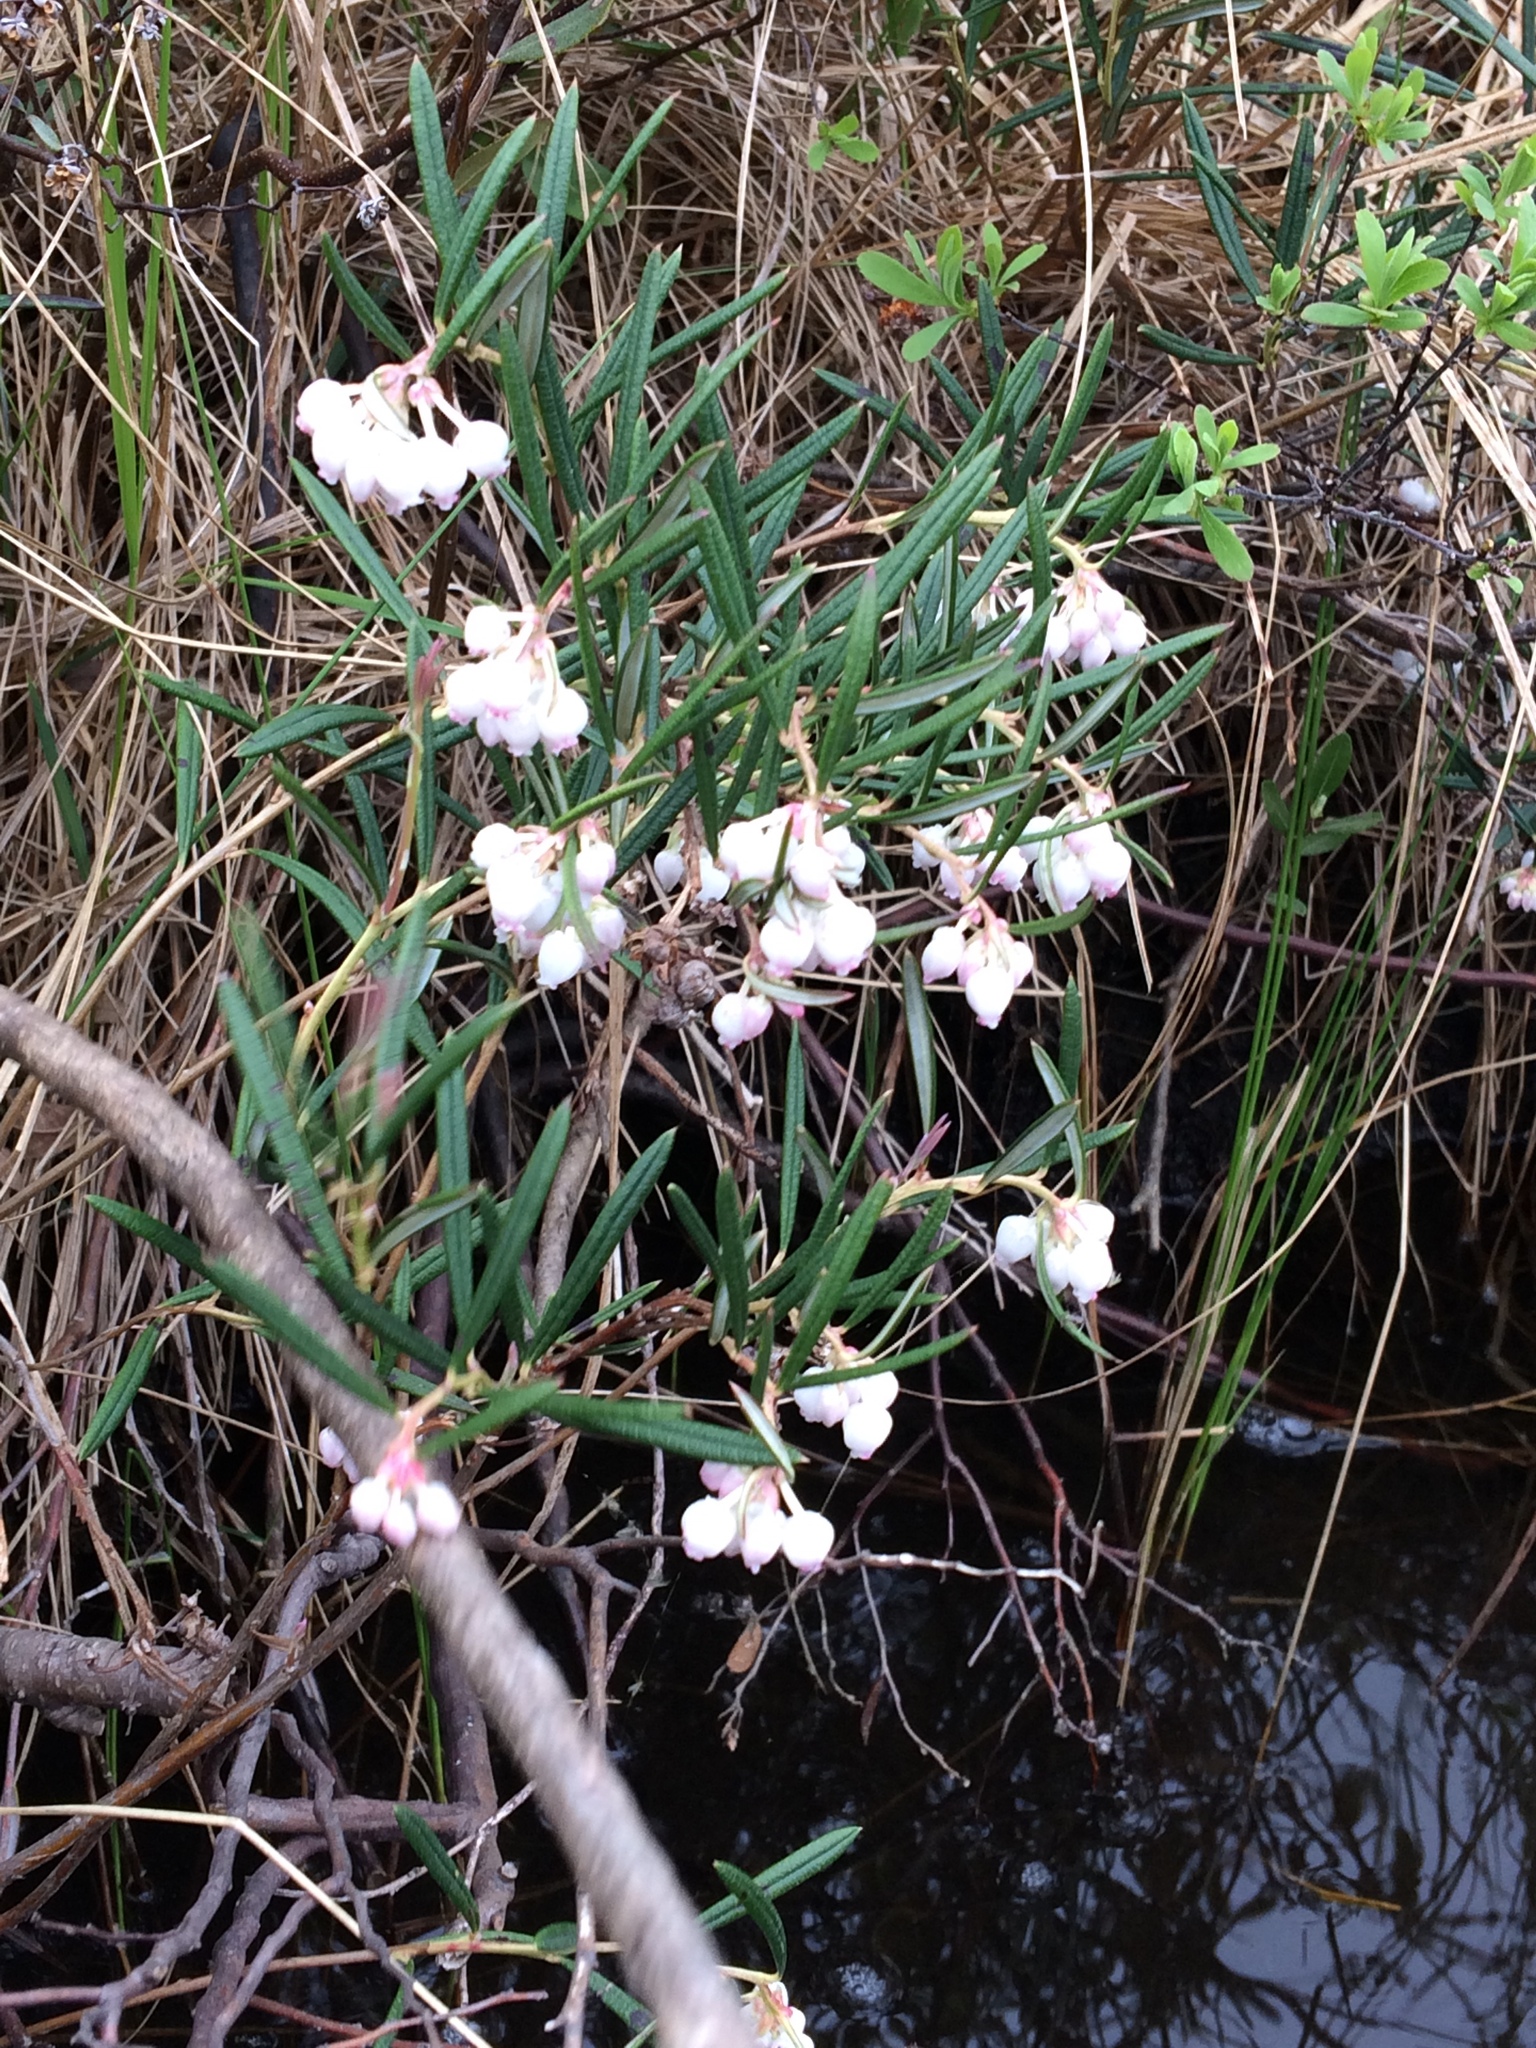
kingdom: Plantae
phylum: Tracheophyta
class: Magnoliopsida
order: Ericales
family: Ericaceae
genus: Andromeda
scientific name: Andromeda polifolia
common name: Bog-rosemary
